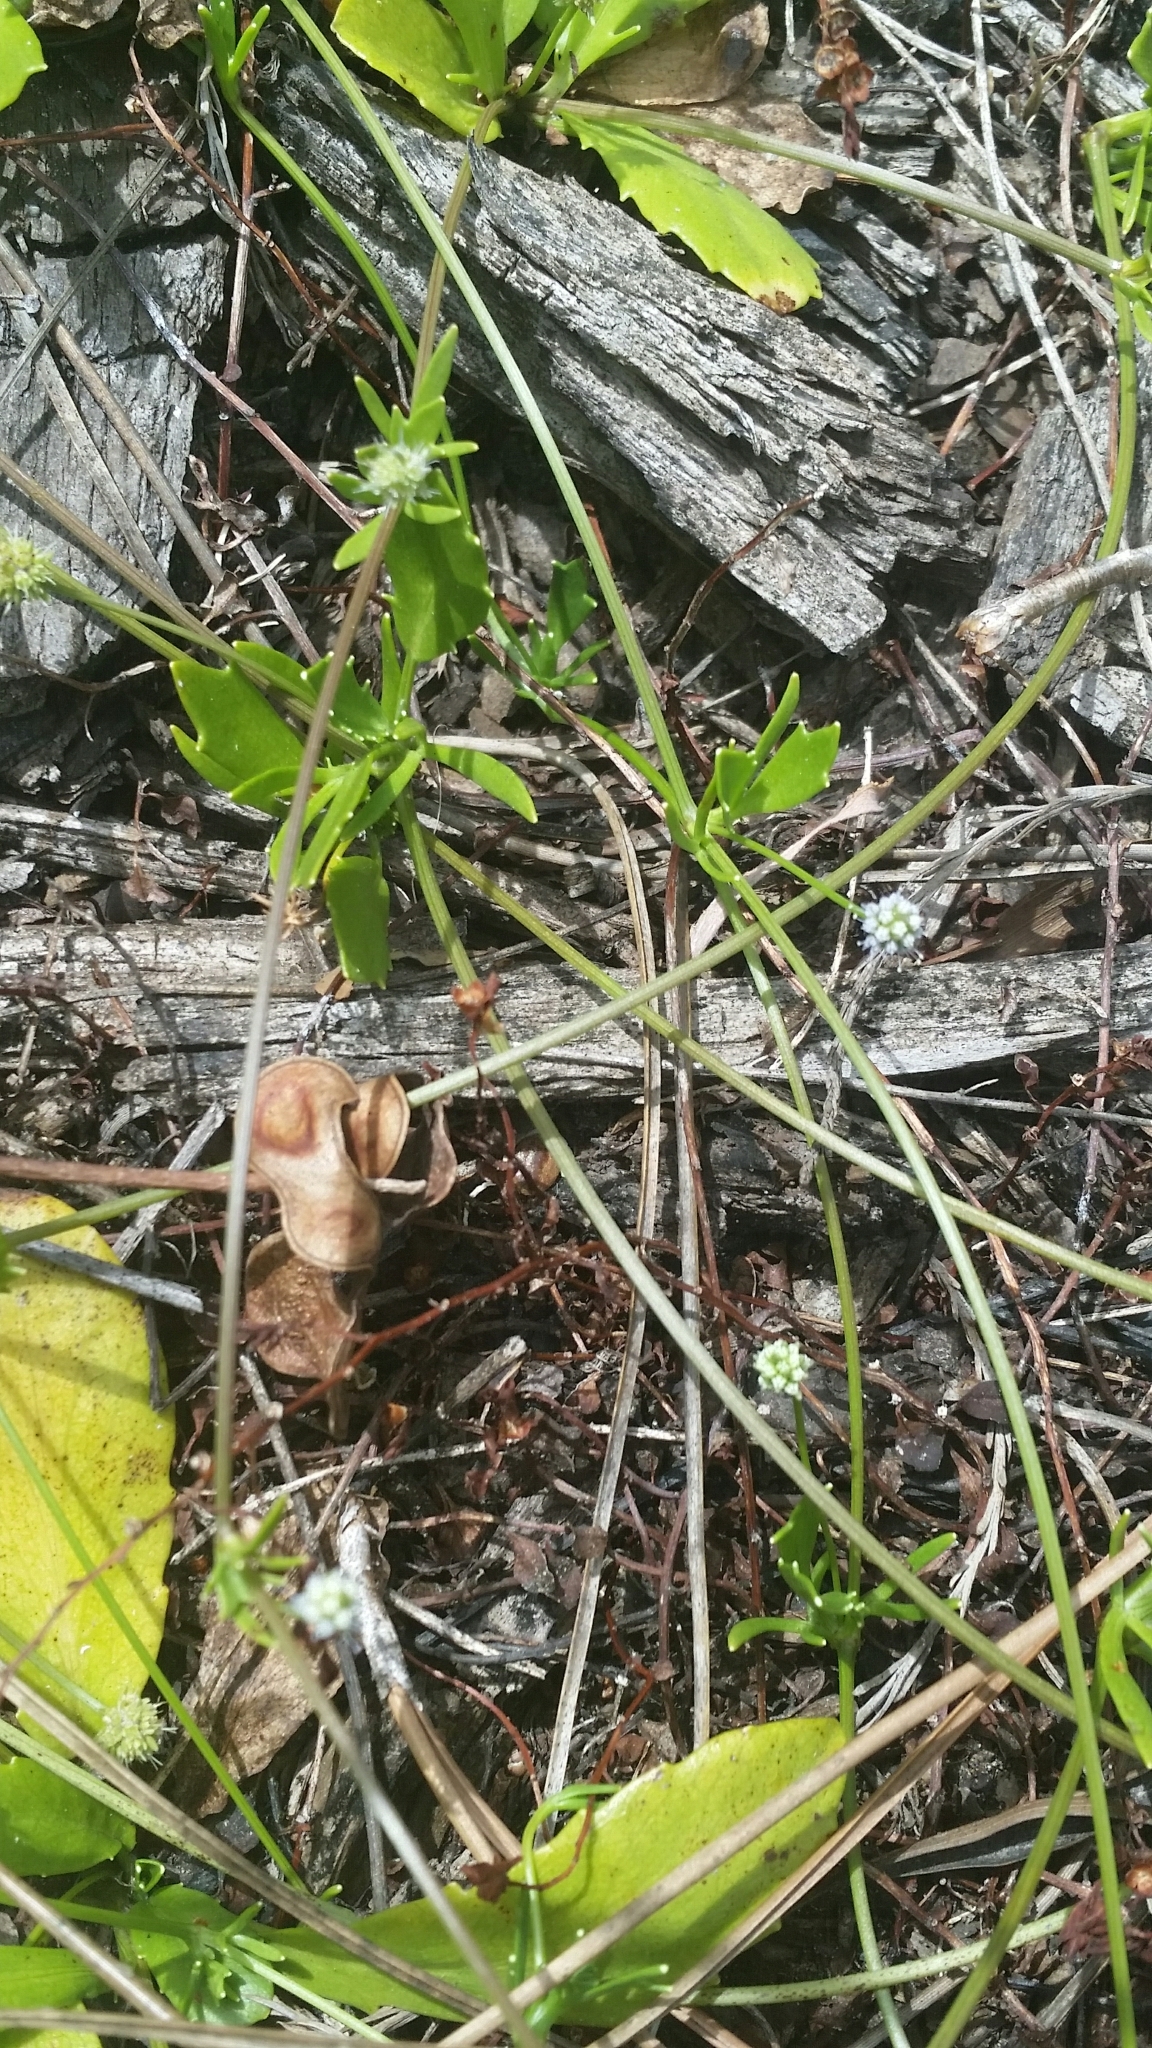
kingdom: Plantae
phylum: Tracheophyta
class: Magnoliopsida
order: Apiales
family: Apiaceae
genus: Eryngium
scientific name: Eryngium baldwinii
